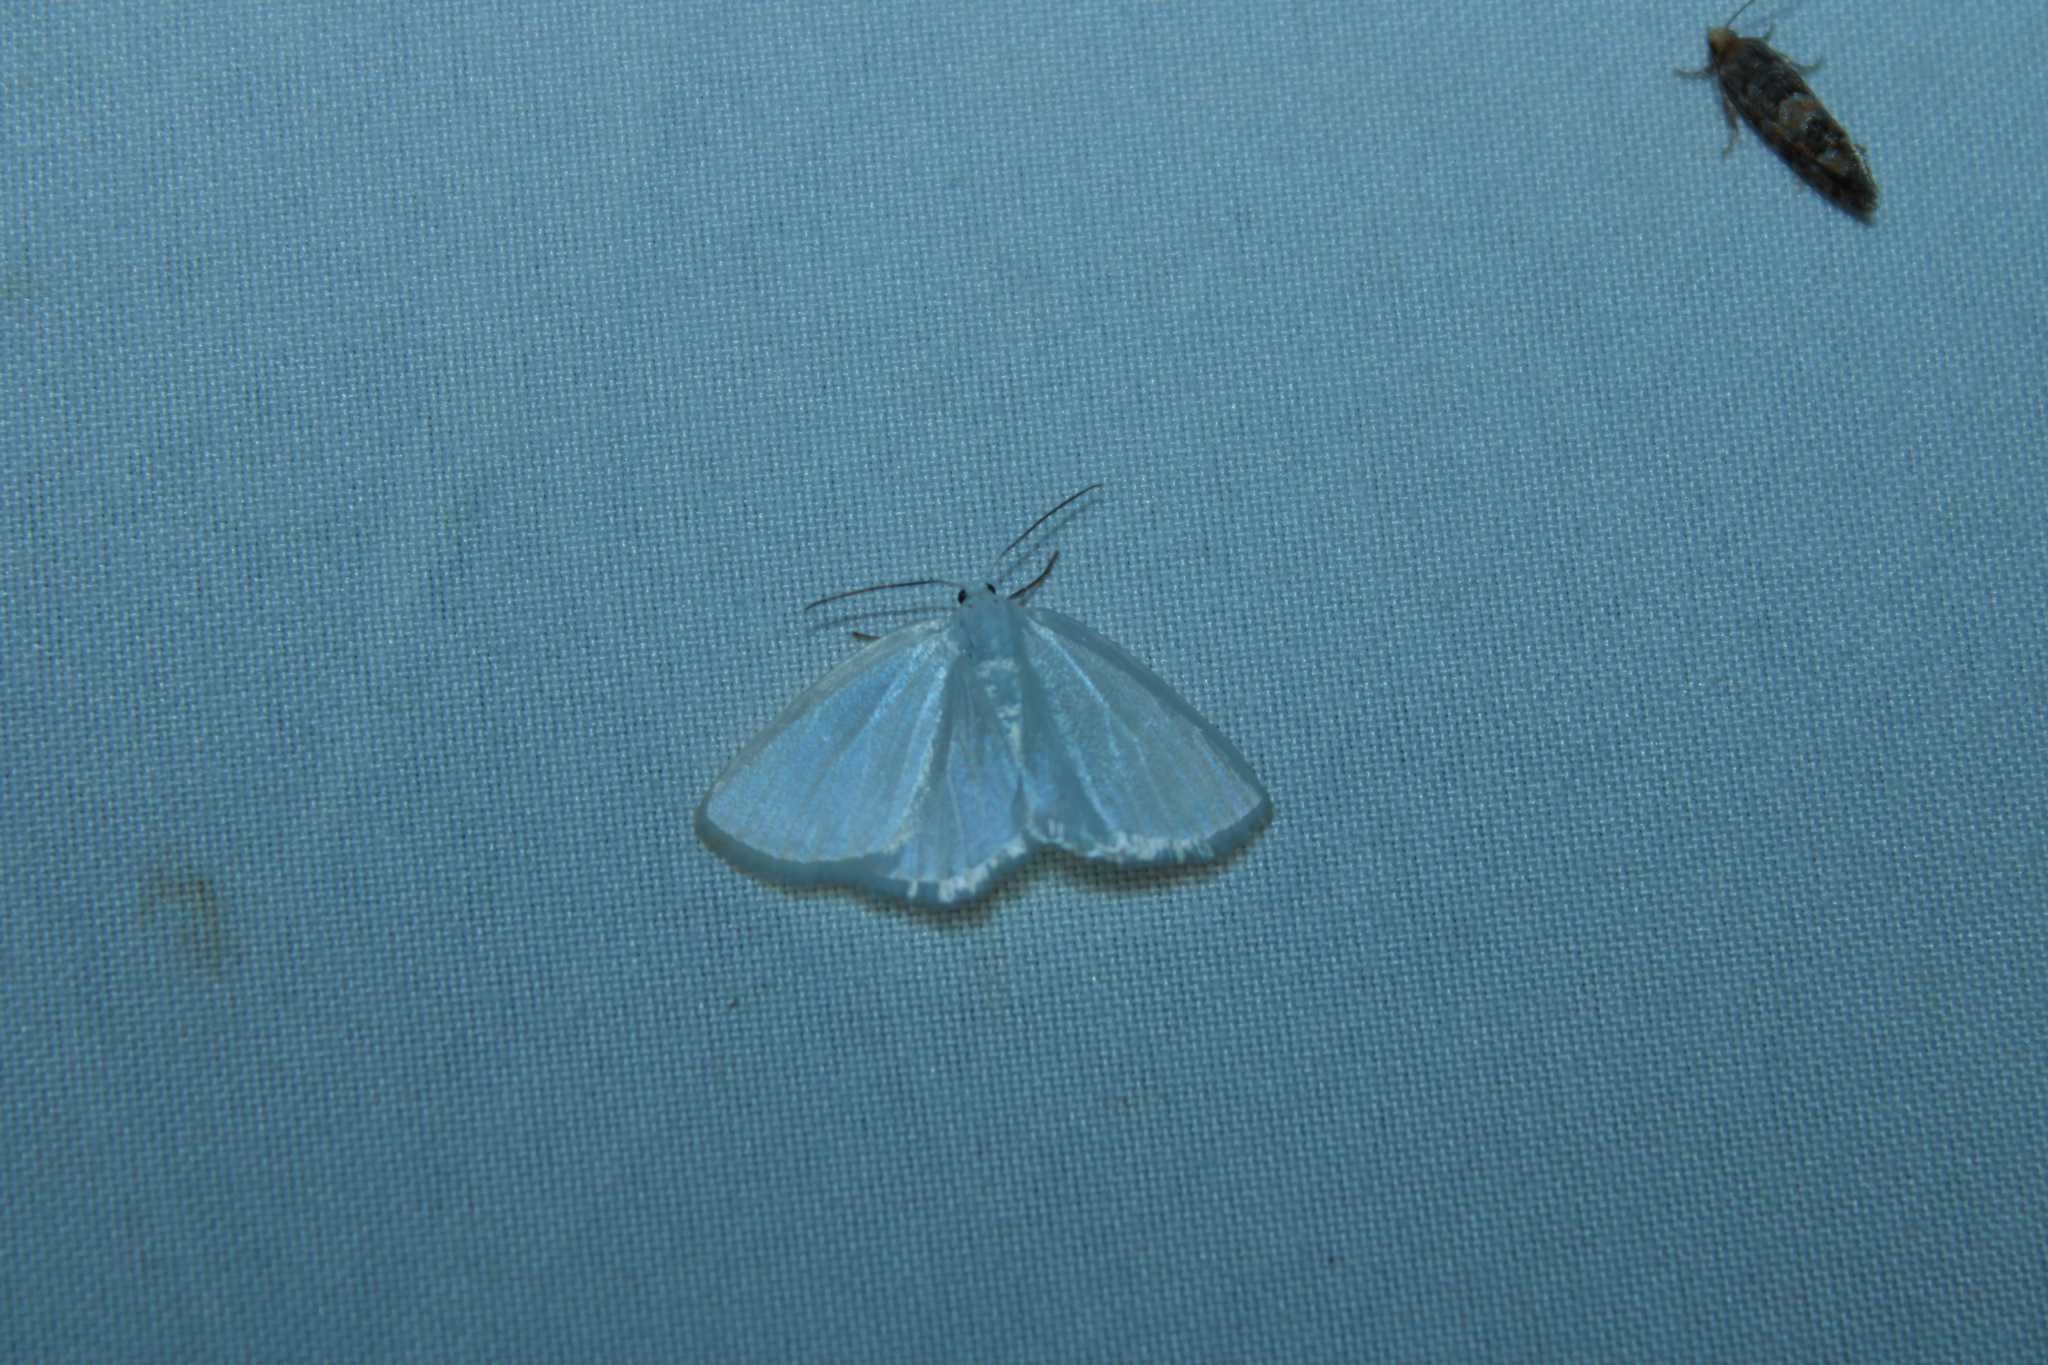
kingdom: Animalia
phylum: Arthropoda
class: Insecta
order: Lepidoptera
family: Geometridae
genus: Lomographa
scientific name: Lomographa vestaliata
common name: White spring moth
